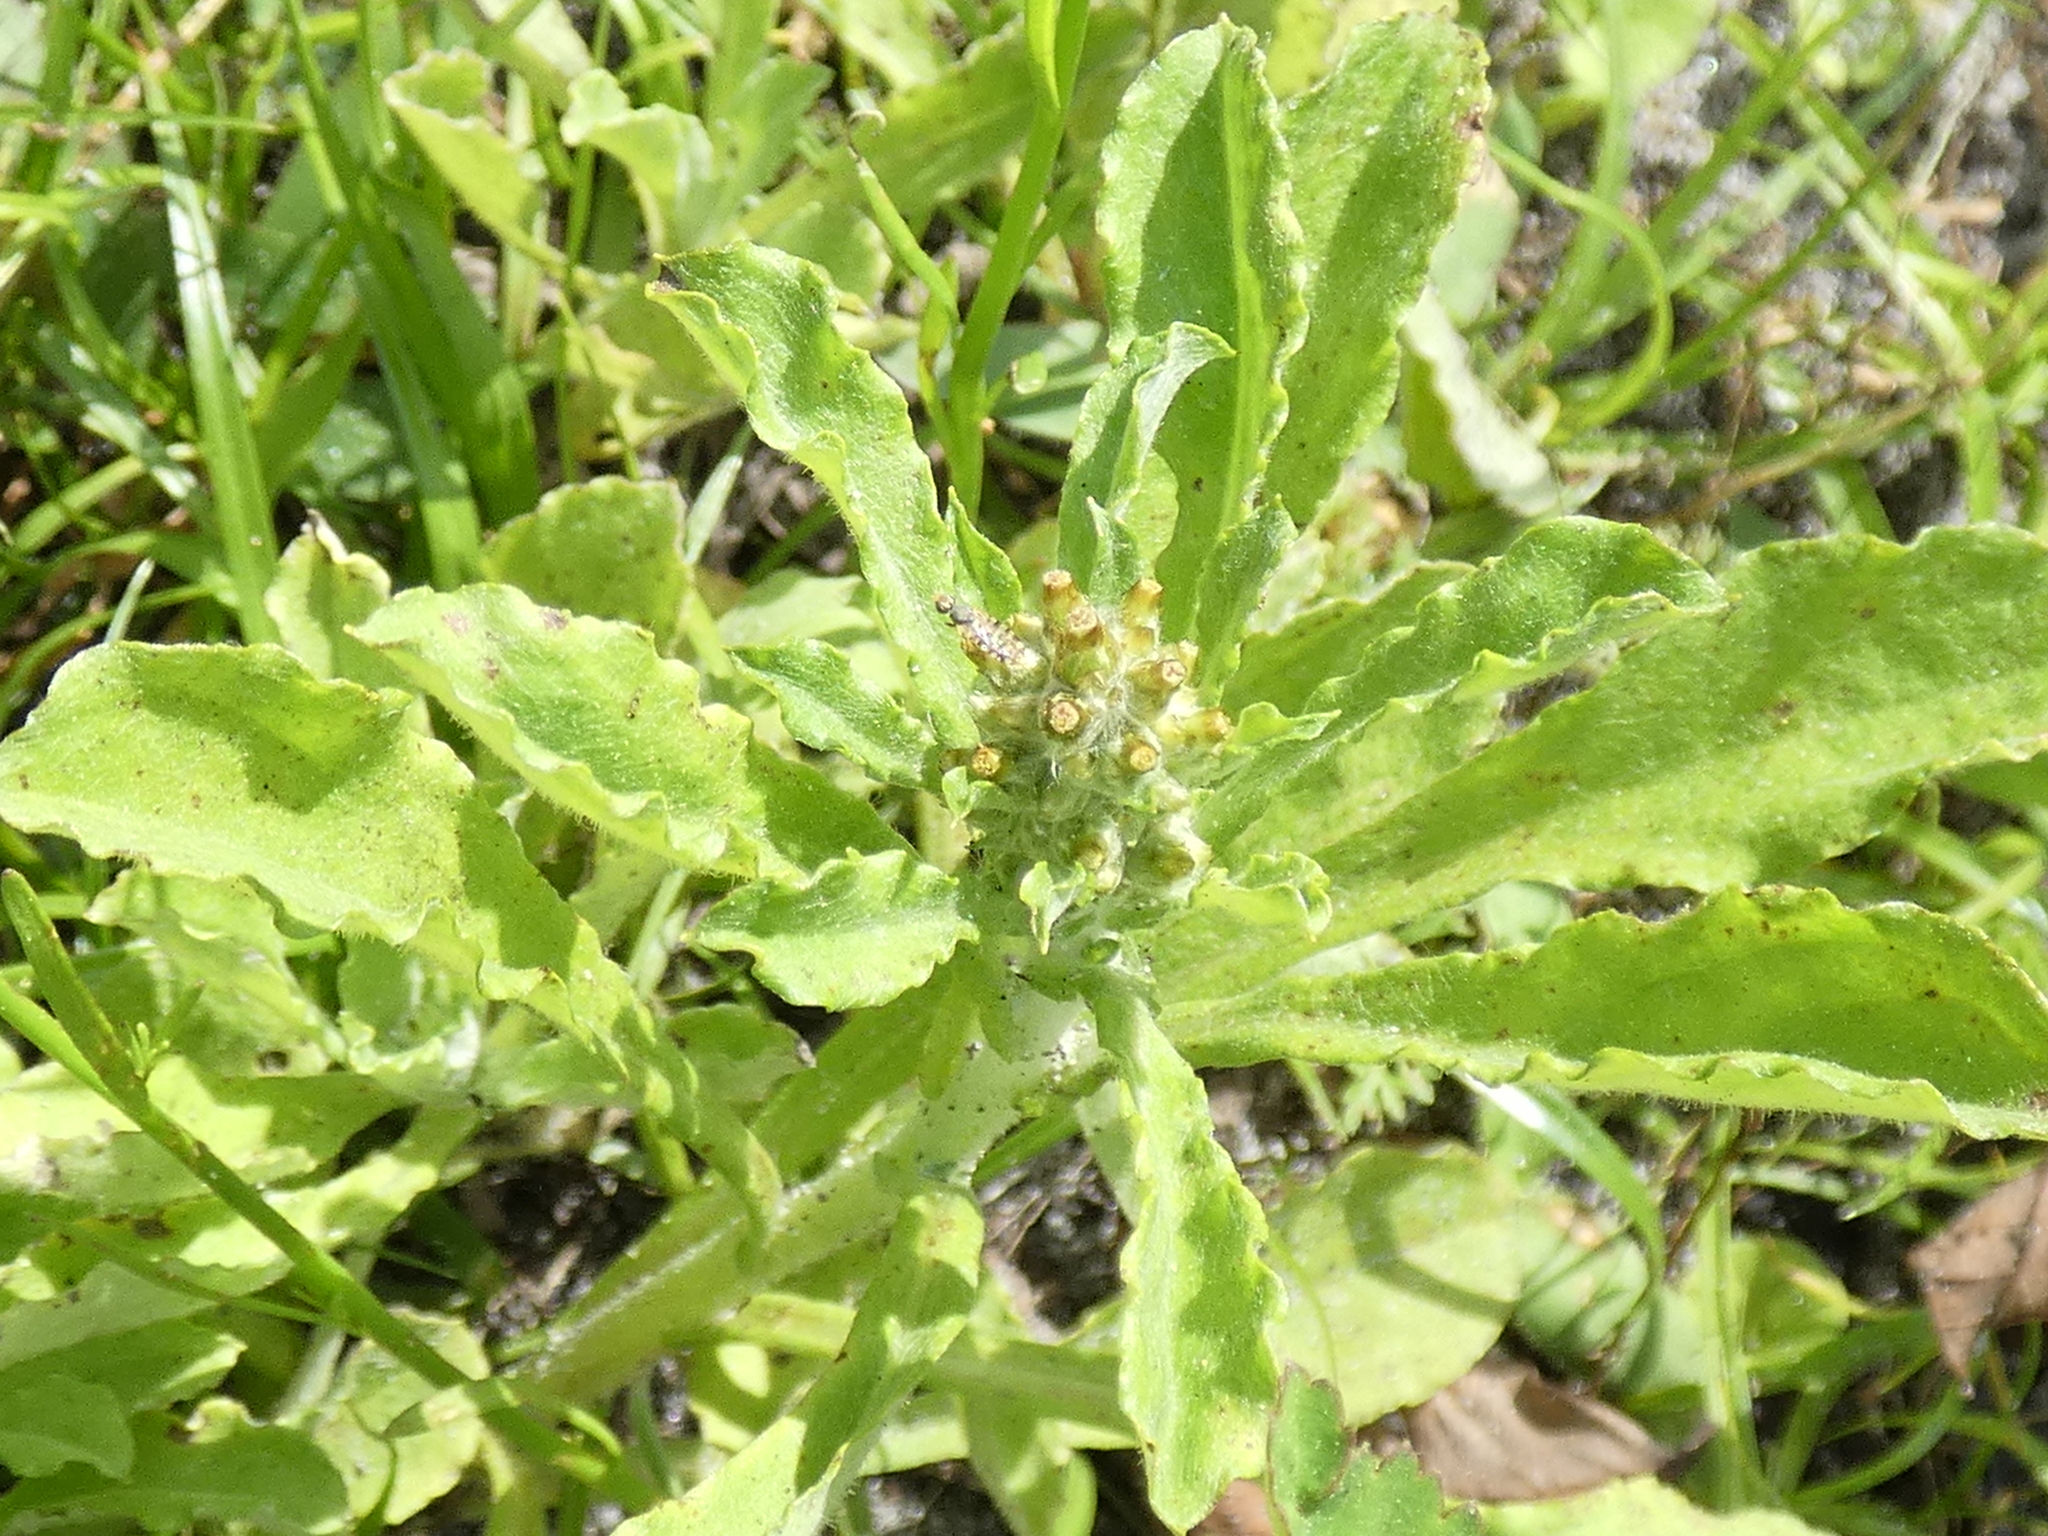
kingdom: Plantae
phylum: Tracheophyta
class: Magnoliopsida
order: Asterales
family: Asteraceae
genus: Gamochaeta
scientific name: Gamochaeta pensylvanica
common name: Pennsylvania everlasting
